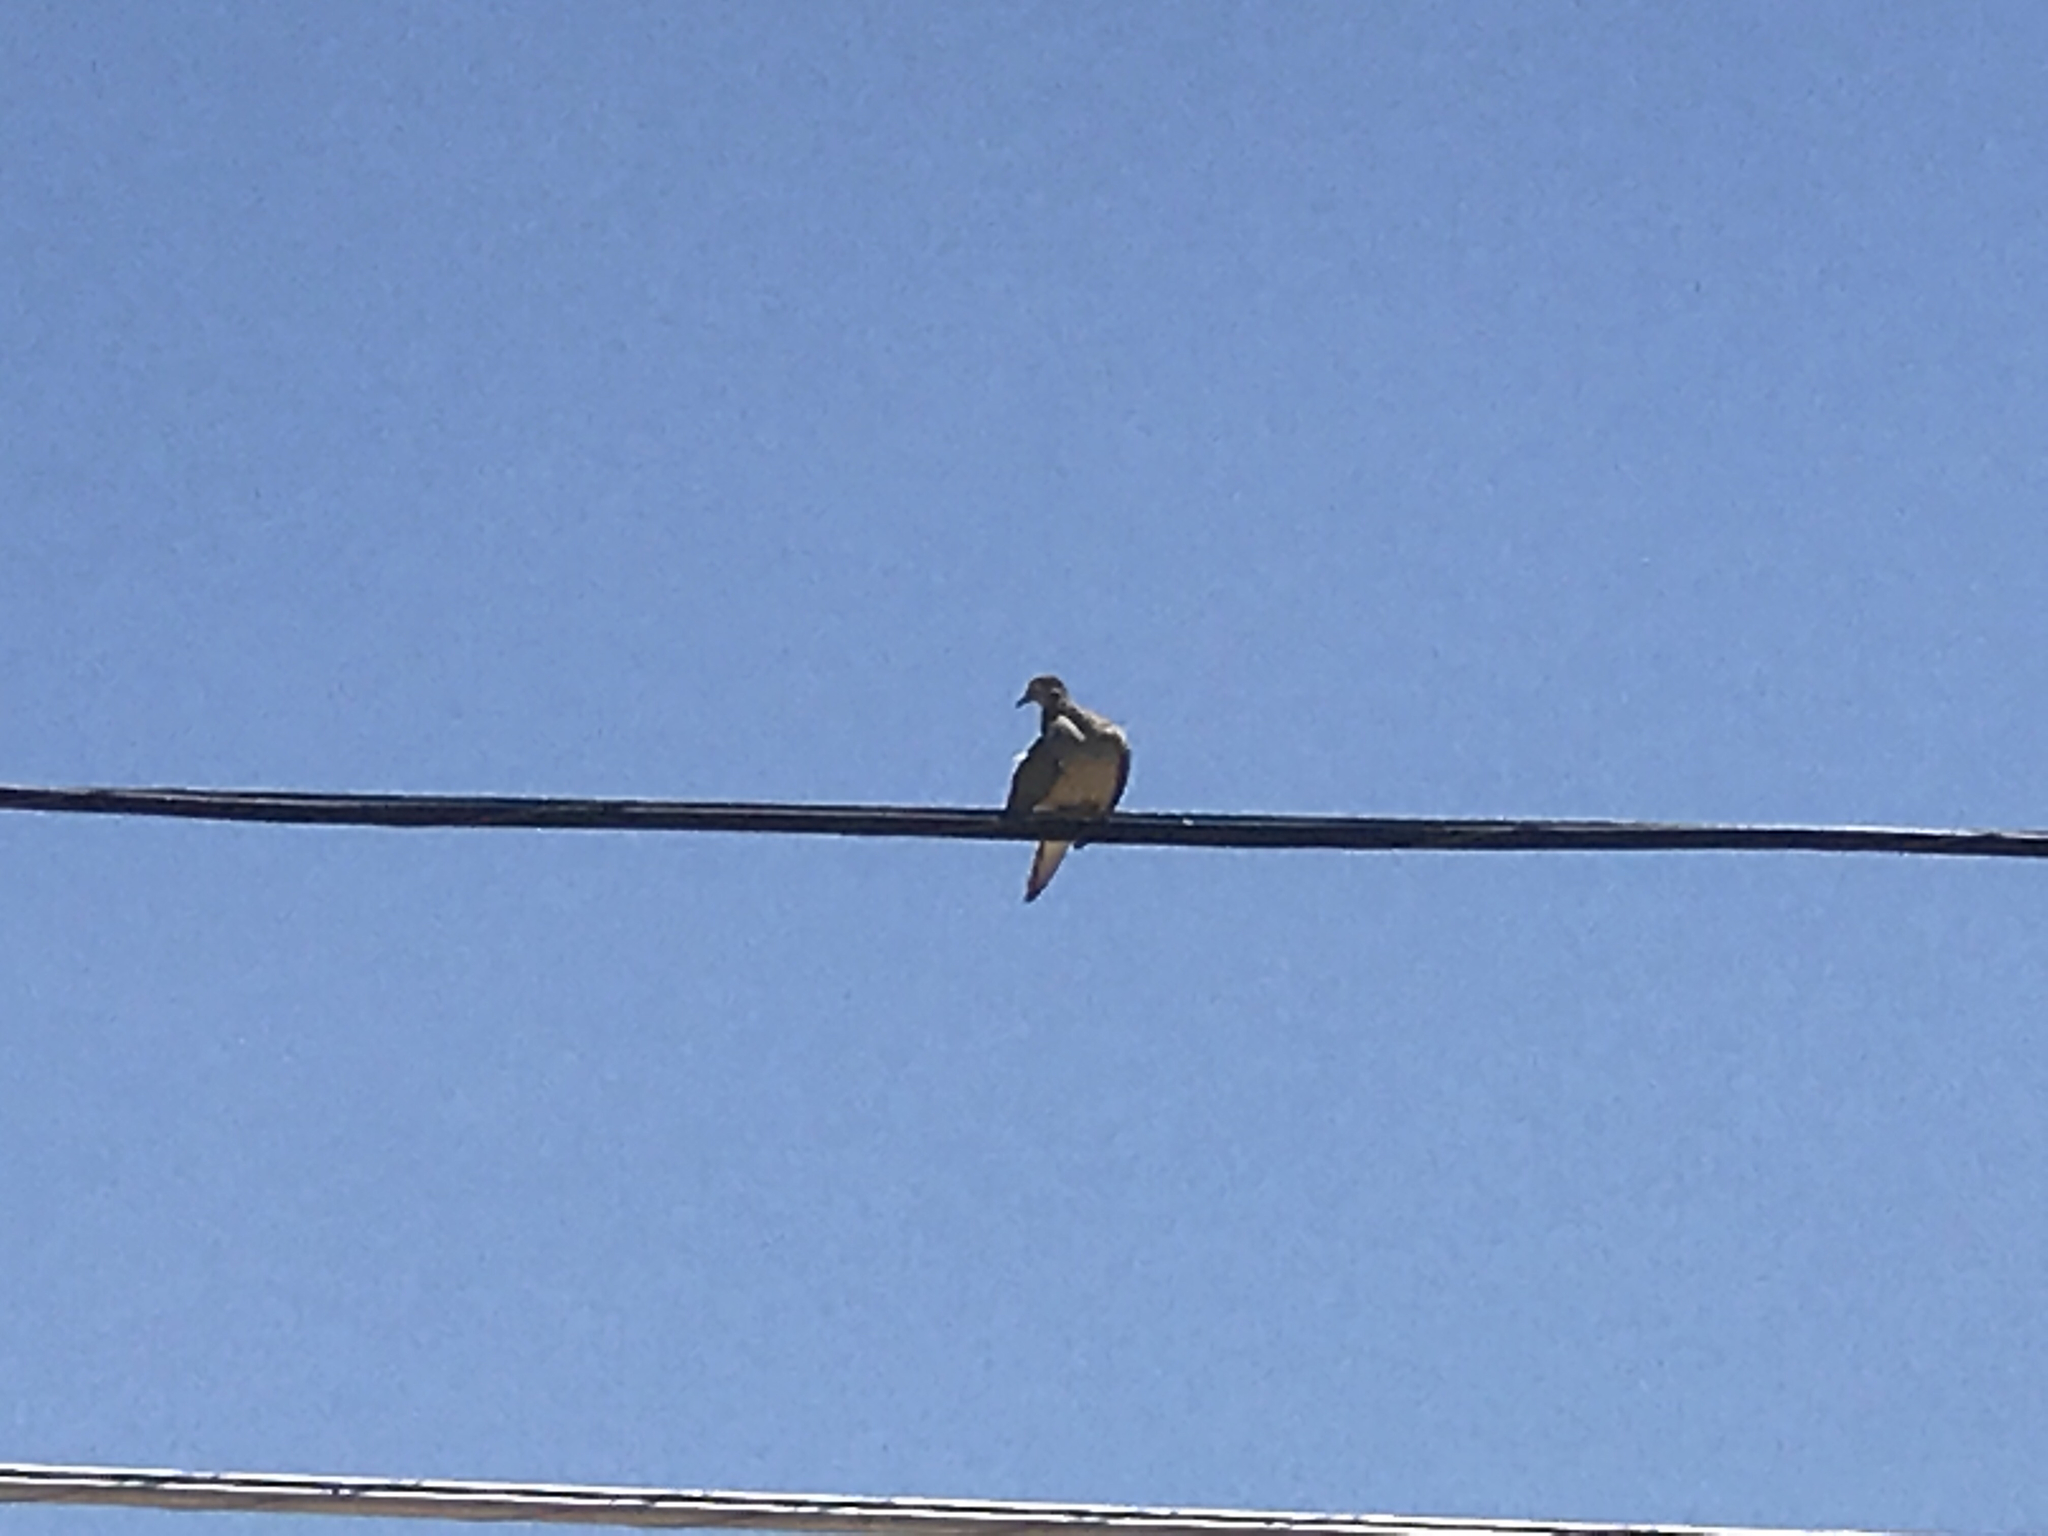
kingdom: Animalia
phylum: Chordata
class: Aves
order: Columbiformes
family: Columbidae
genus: Zenaida
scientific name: Zenaida macroura
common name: Mourning dove
